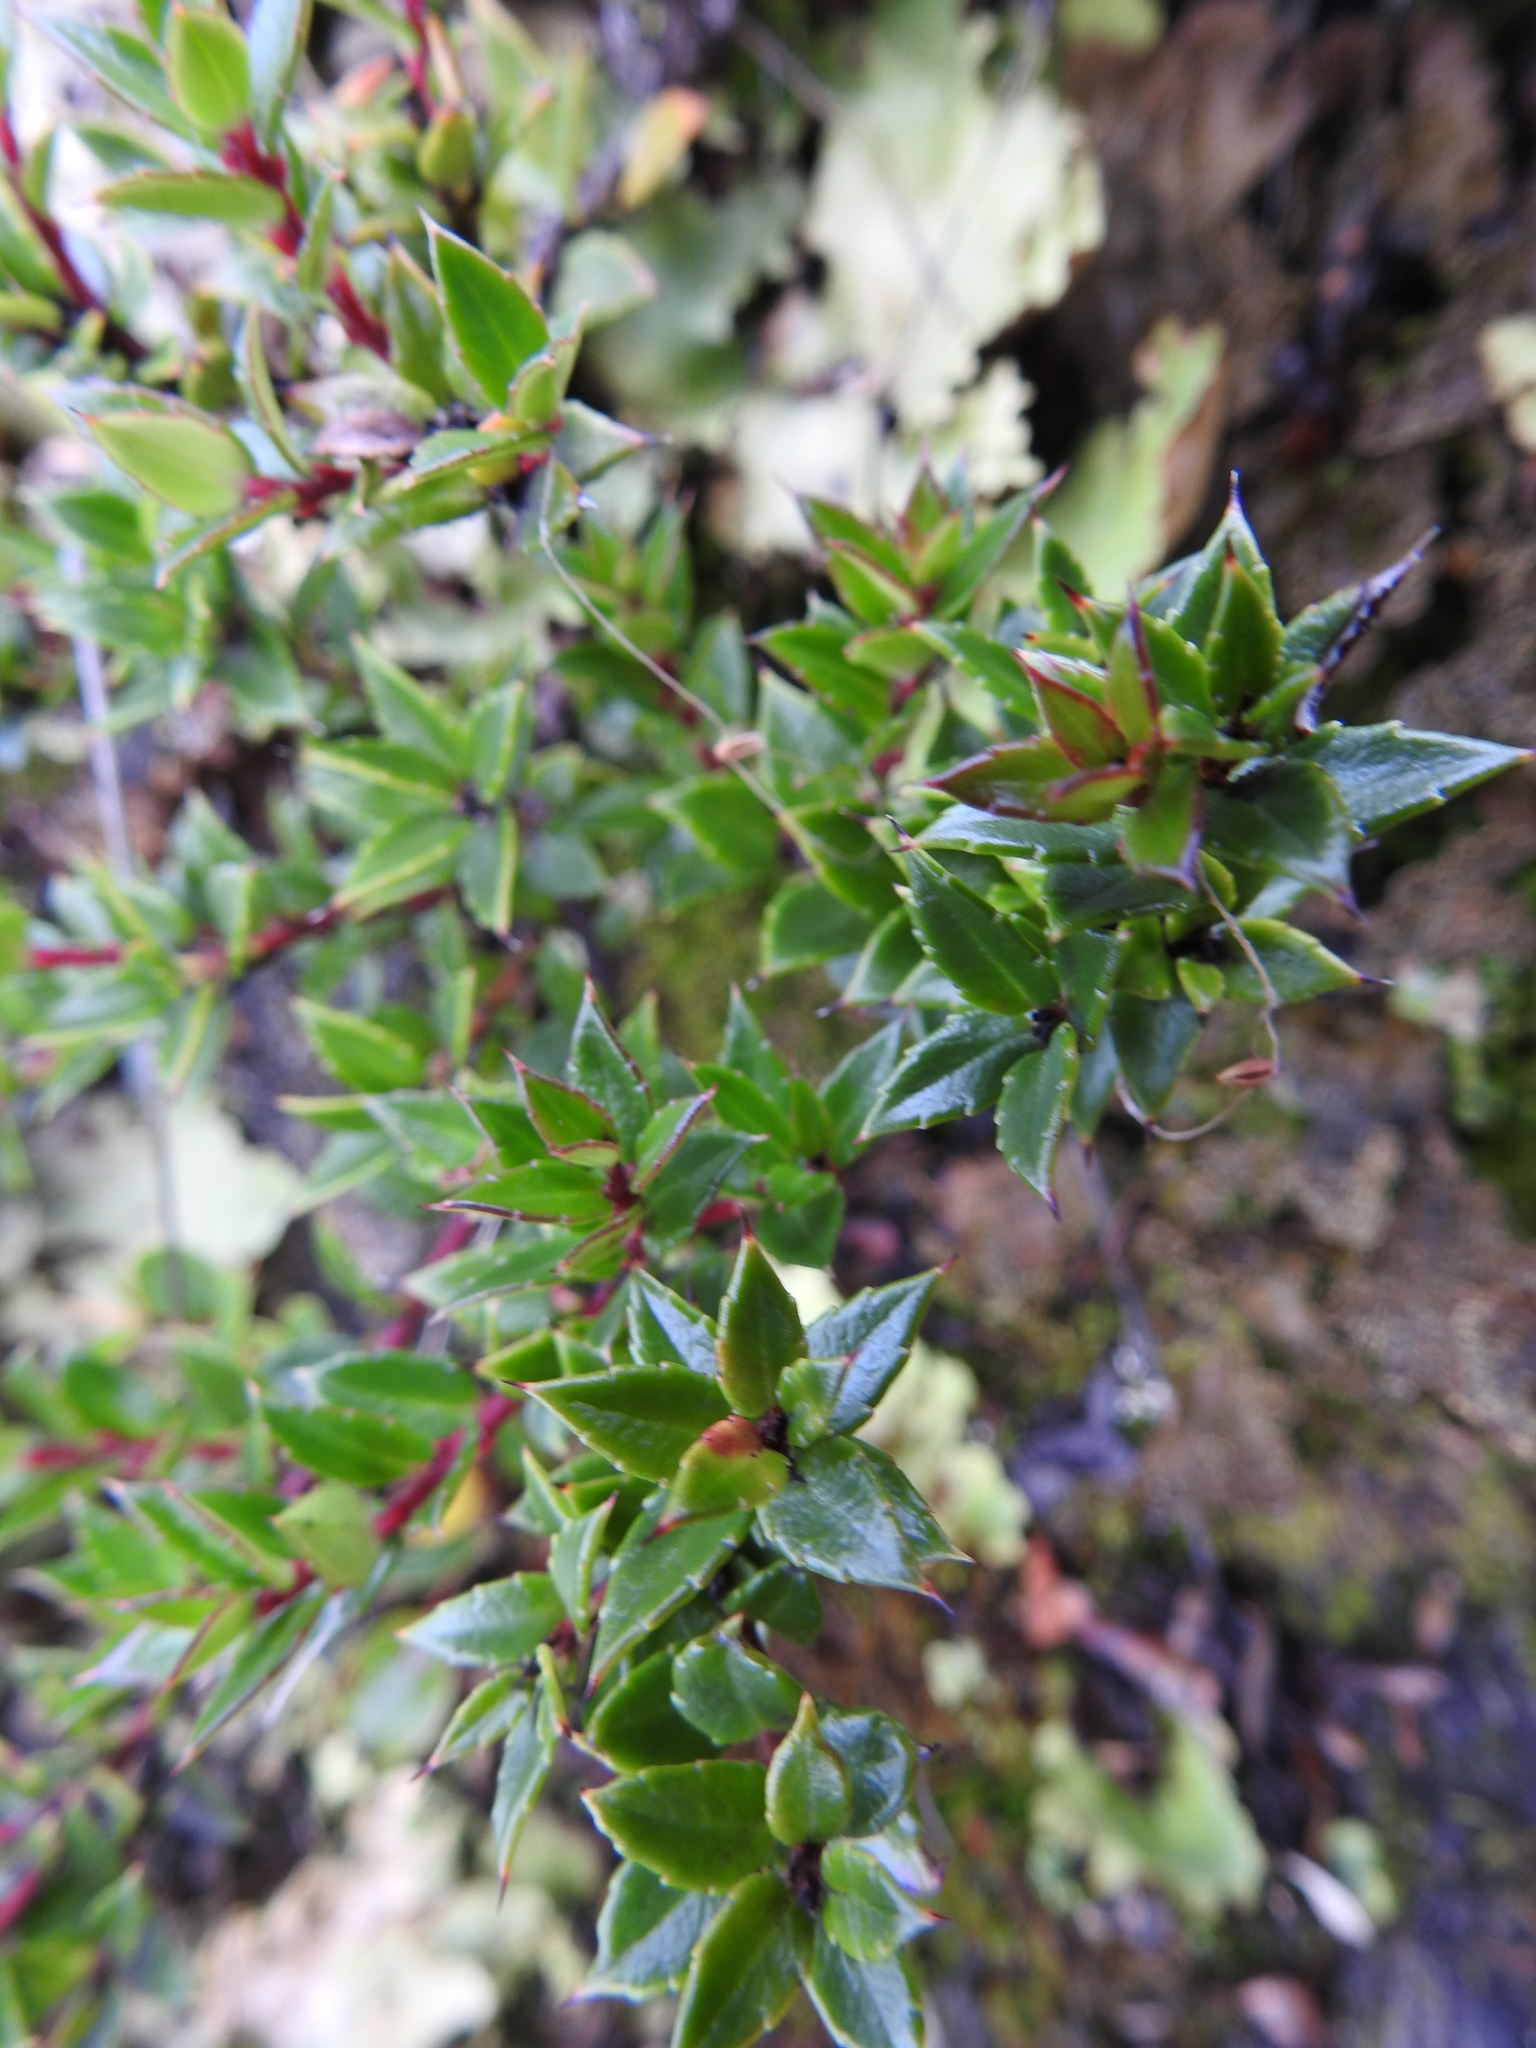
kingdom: Plantae
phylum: Tracheophyta
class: Magnoliopsida
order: Ericales
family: Ericaceae
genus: Gaultheria
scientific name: Gaultheria mucronata
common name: Prickly heath
